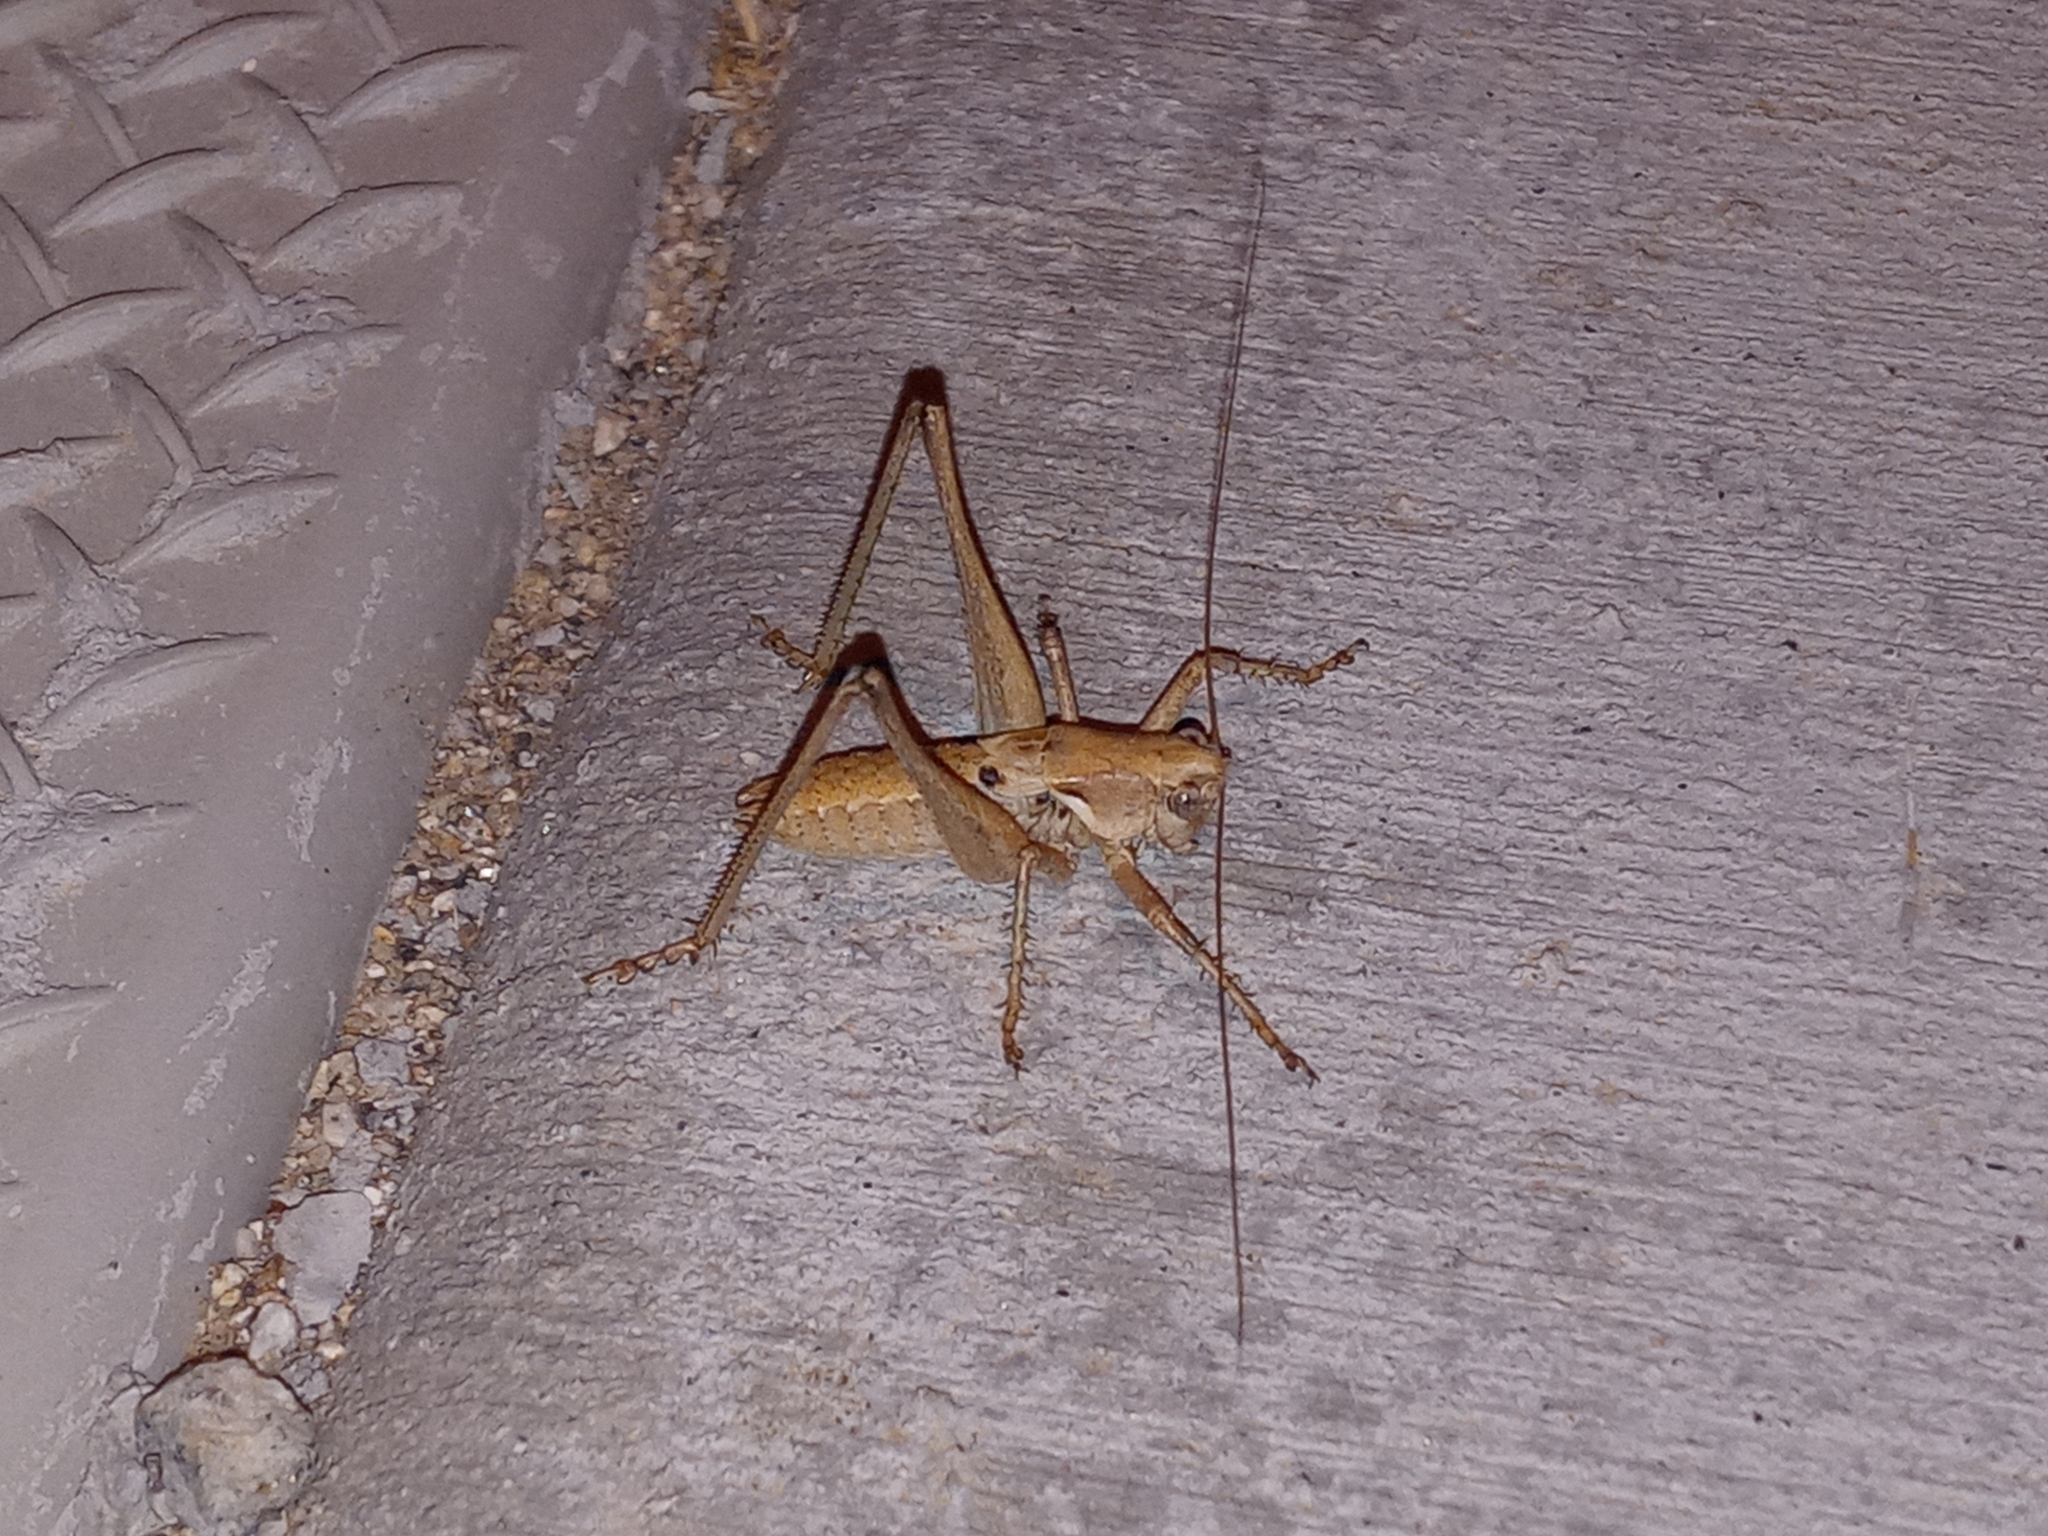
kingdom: Animalia
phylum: Arthropoda
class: Insecta
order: Orthoptera
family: Tettigoniidae
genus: Idiostatus
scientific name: Idiostatus aequalis
